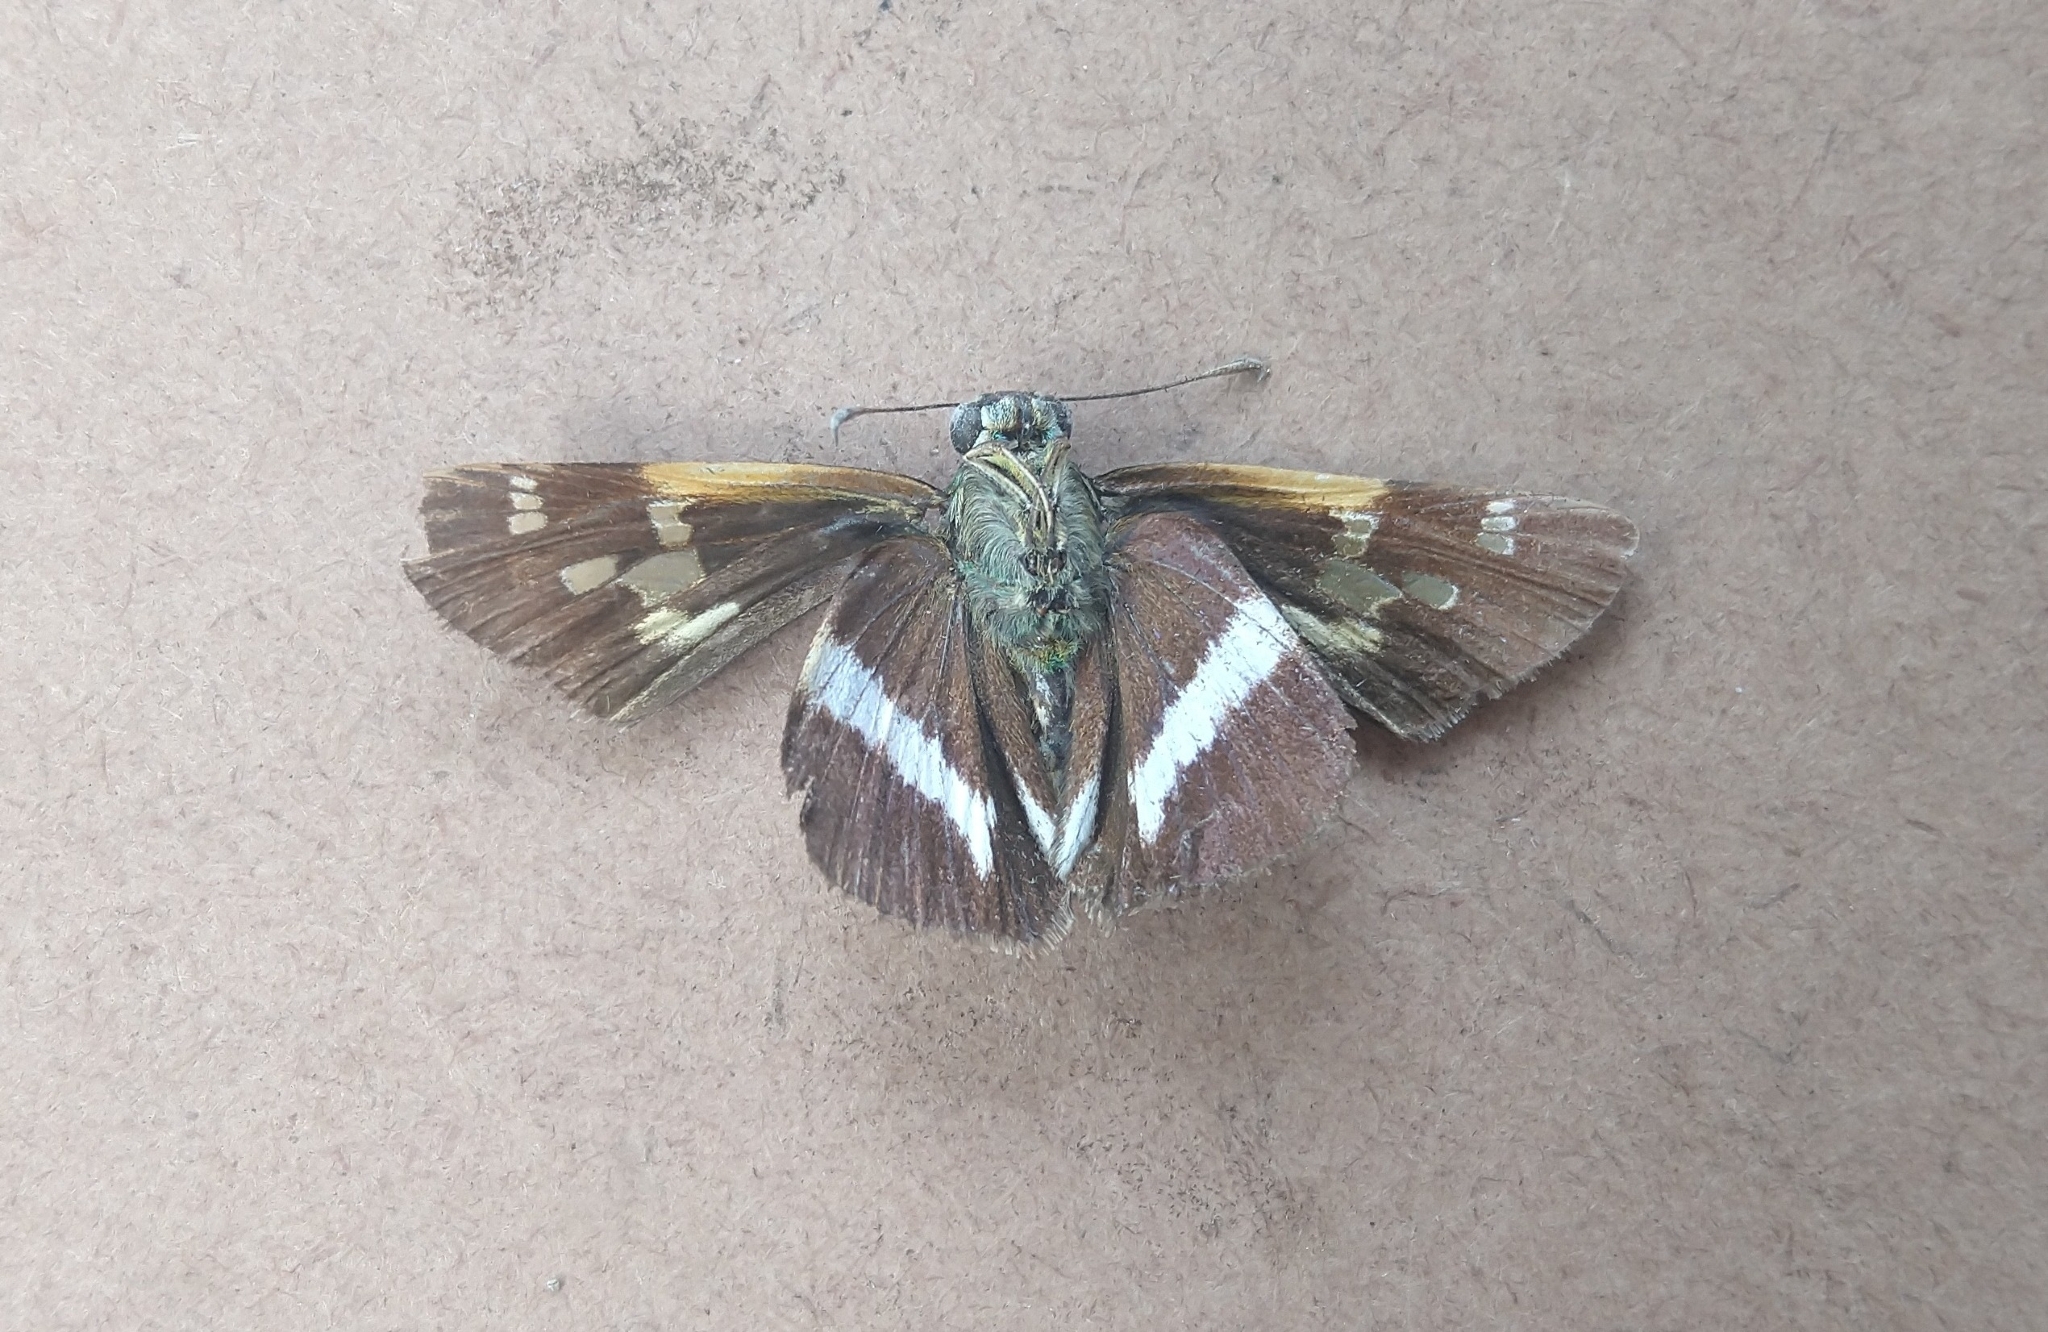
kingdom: Animalia
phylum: Arthropoda
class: Insecta
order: Lepidoptera
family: Hesperiidae
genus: Oxynthes
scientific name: Oxynthes corusca
